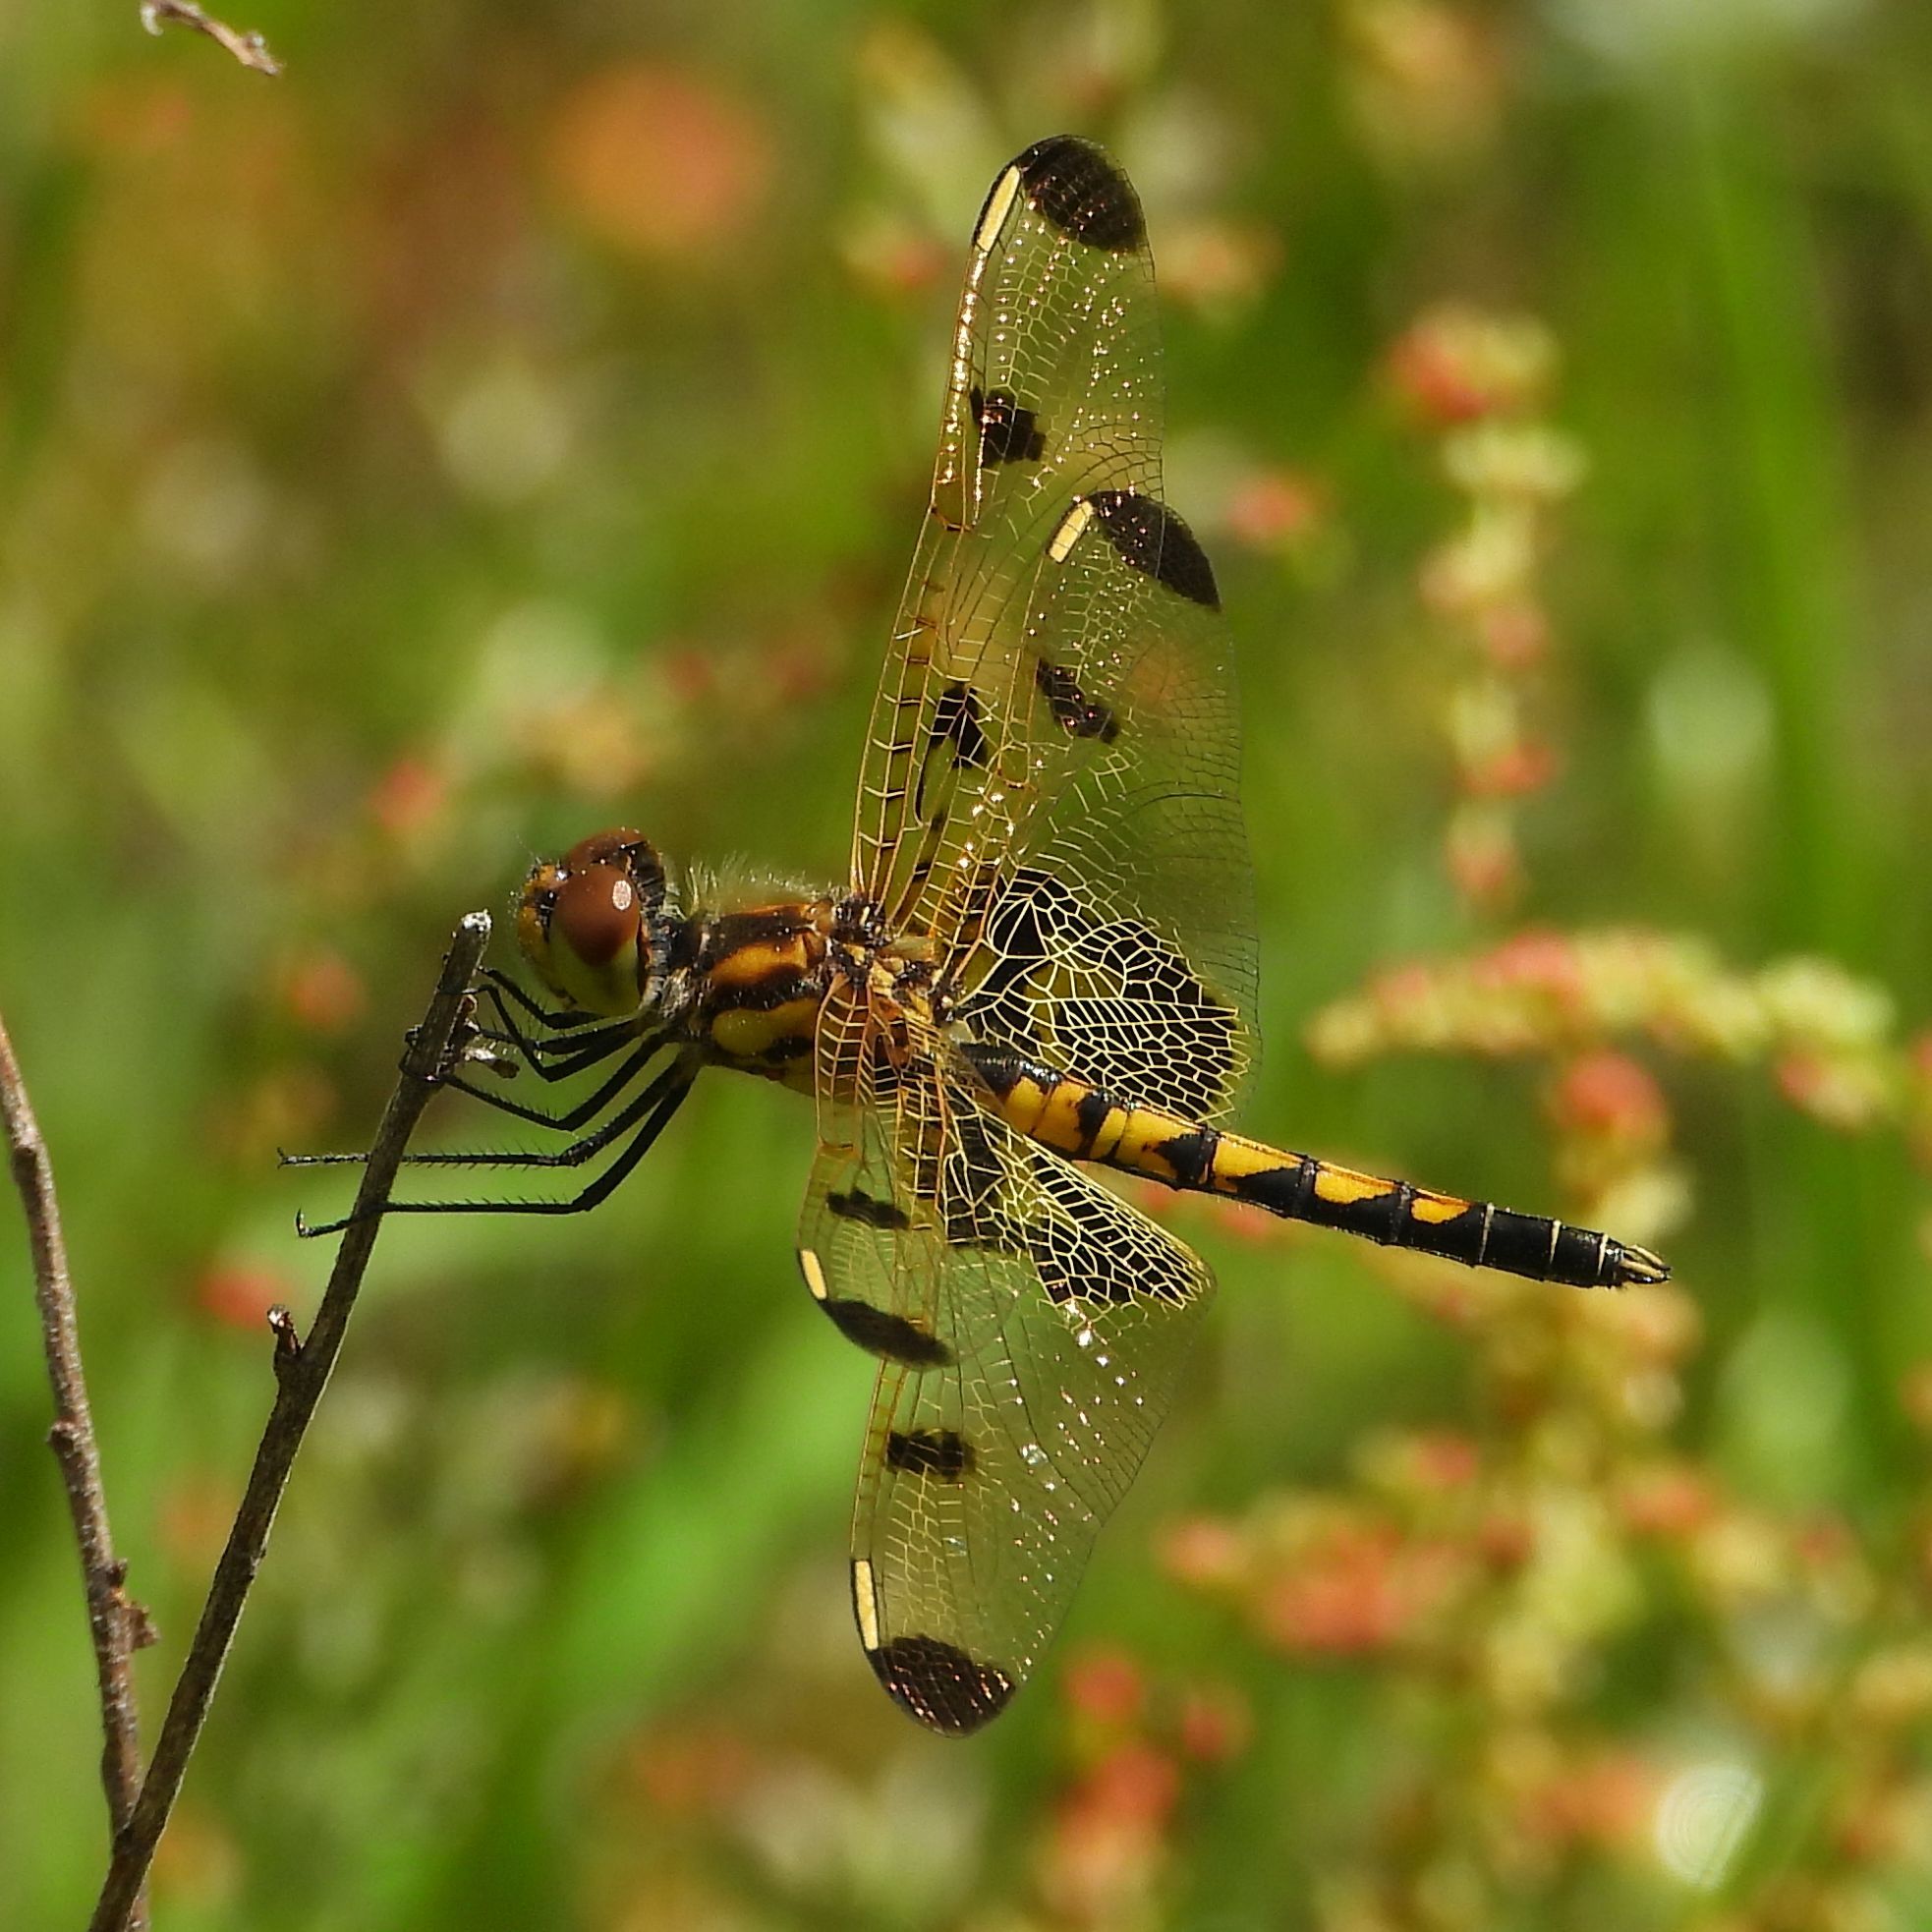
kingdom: Animalia
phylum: Arthropoda
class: Insecta
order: Odonata
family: Libellulidae
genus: Celithemis
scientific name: Celithemis elisa
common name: Calico pennant
